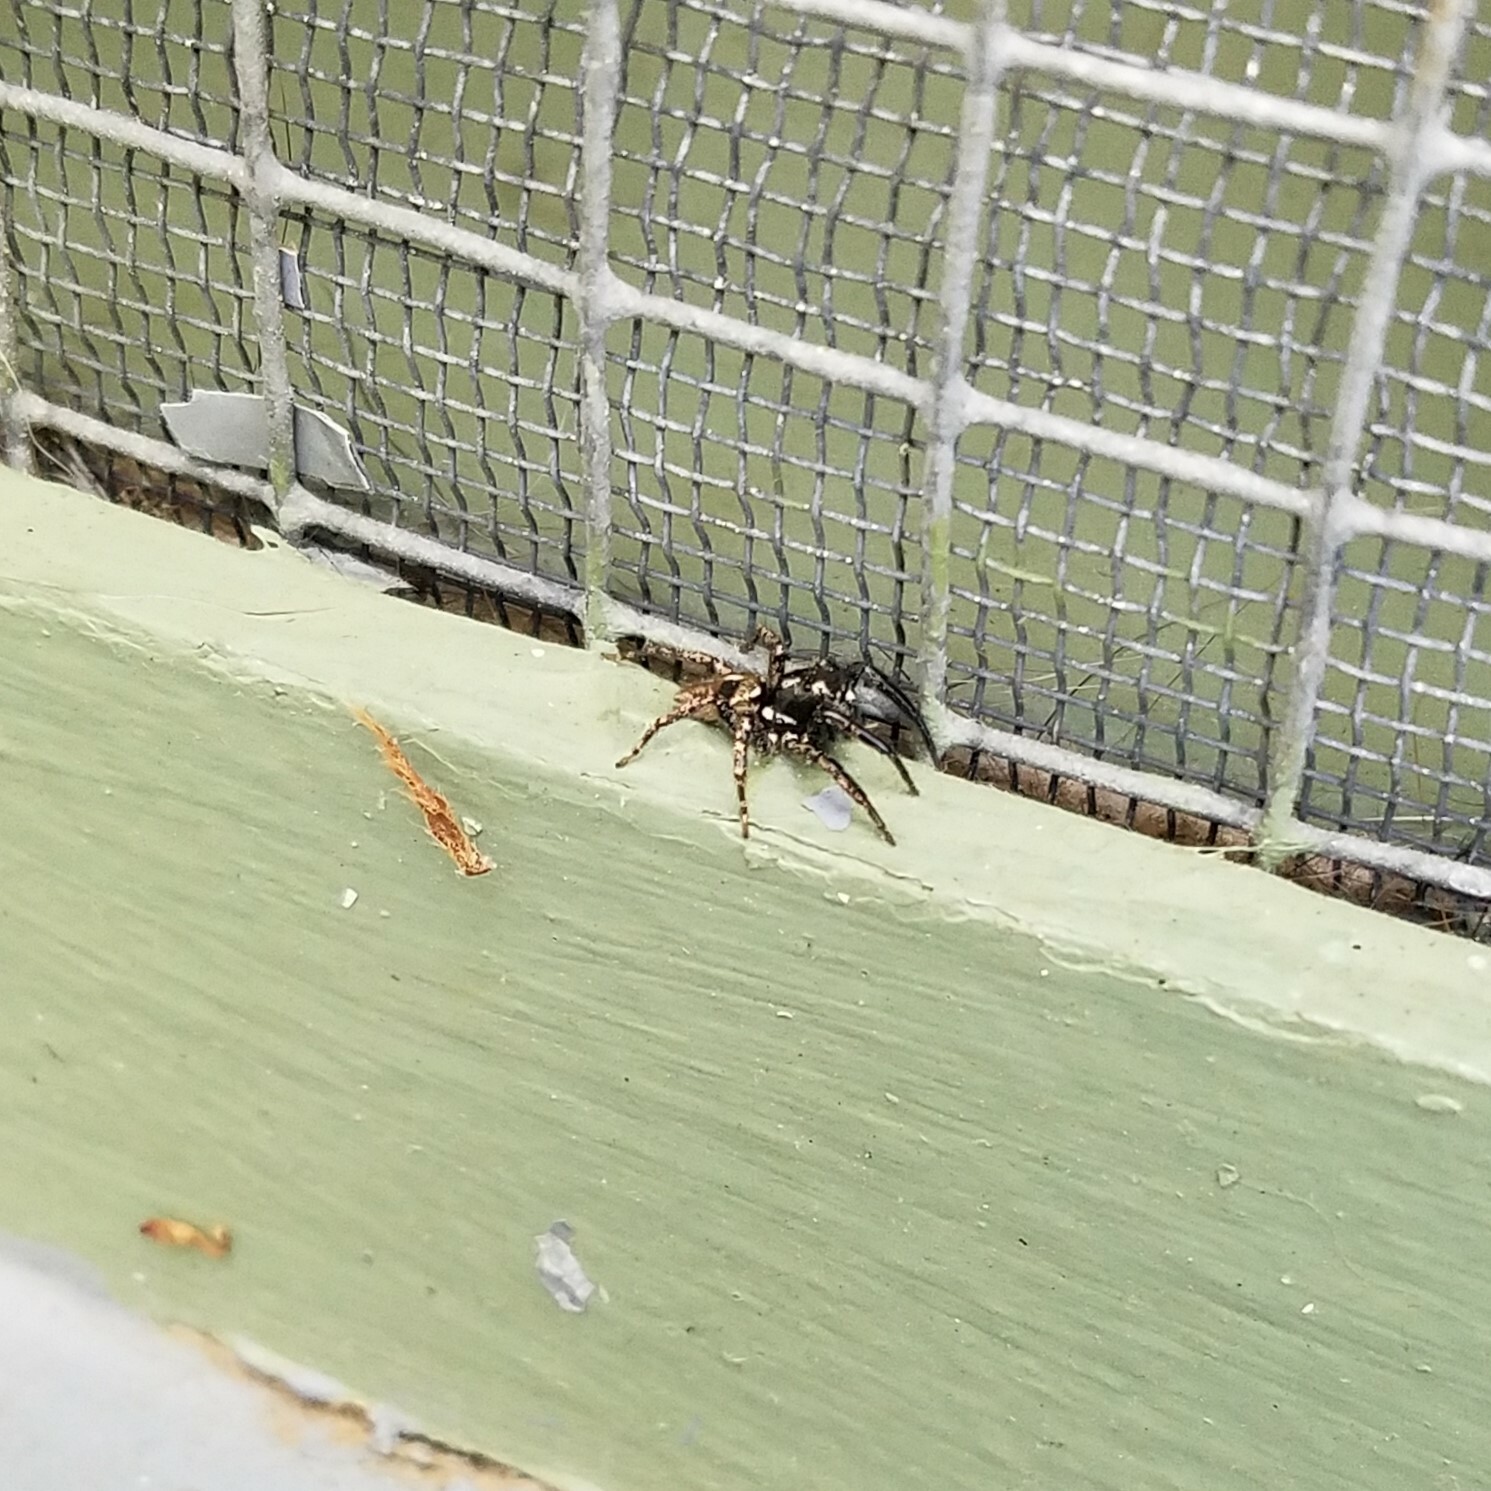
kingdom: Animalia
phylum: Arthropoda
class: Arachnida
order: Araneae
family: Salticidae
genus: Anasaitis
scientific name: Anasaitis canosa
